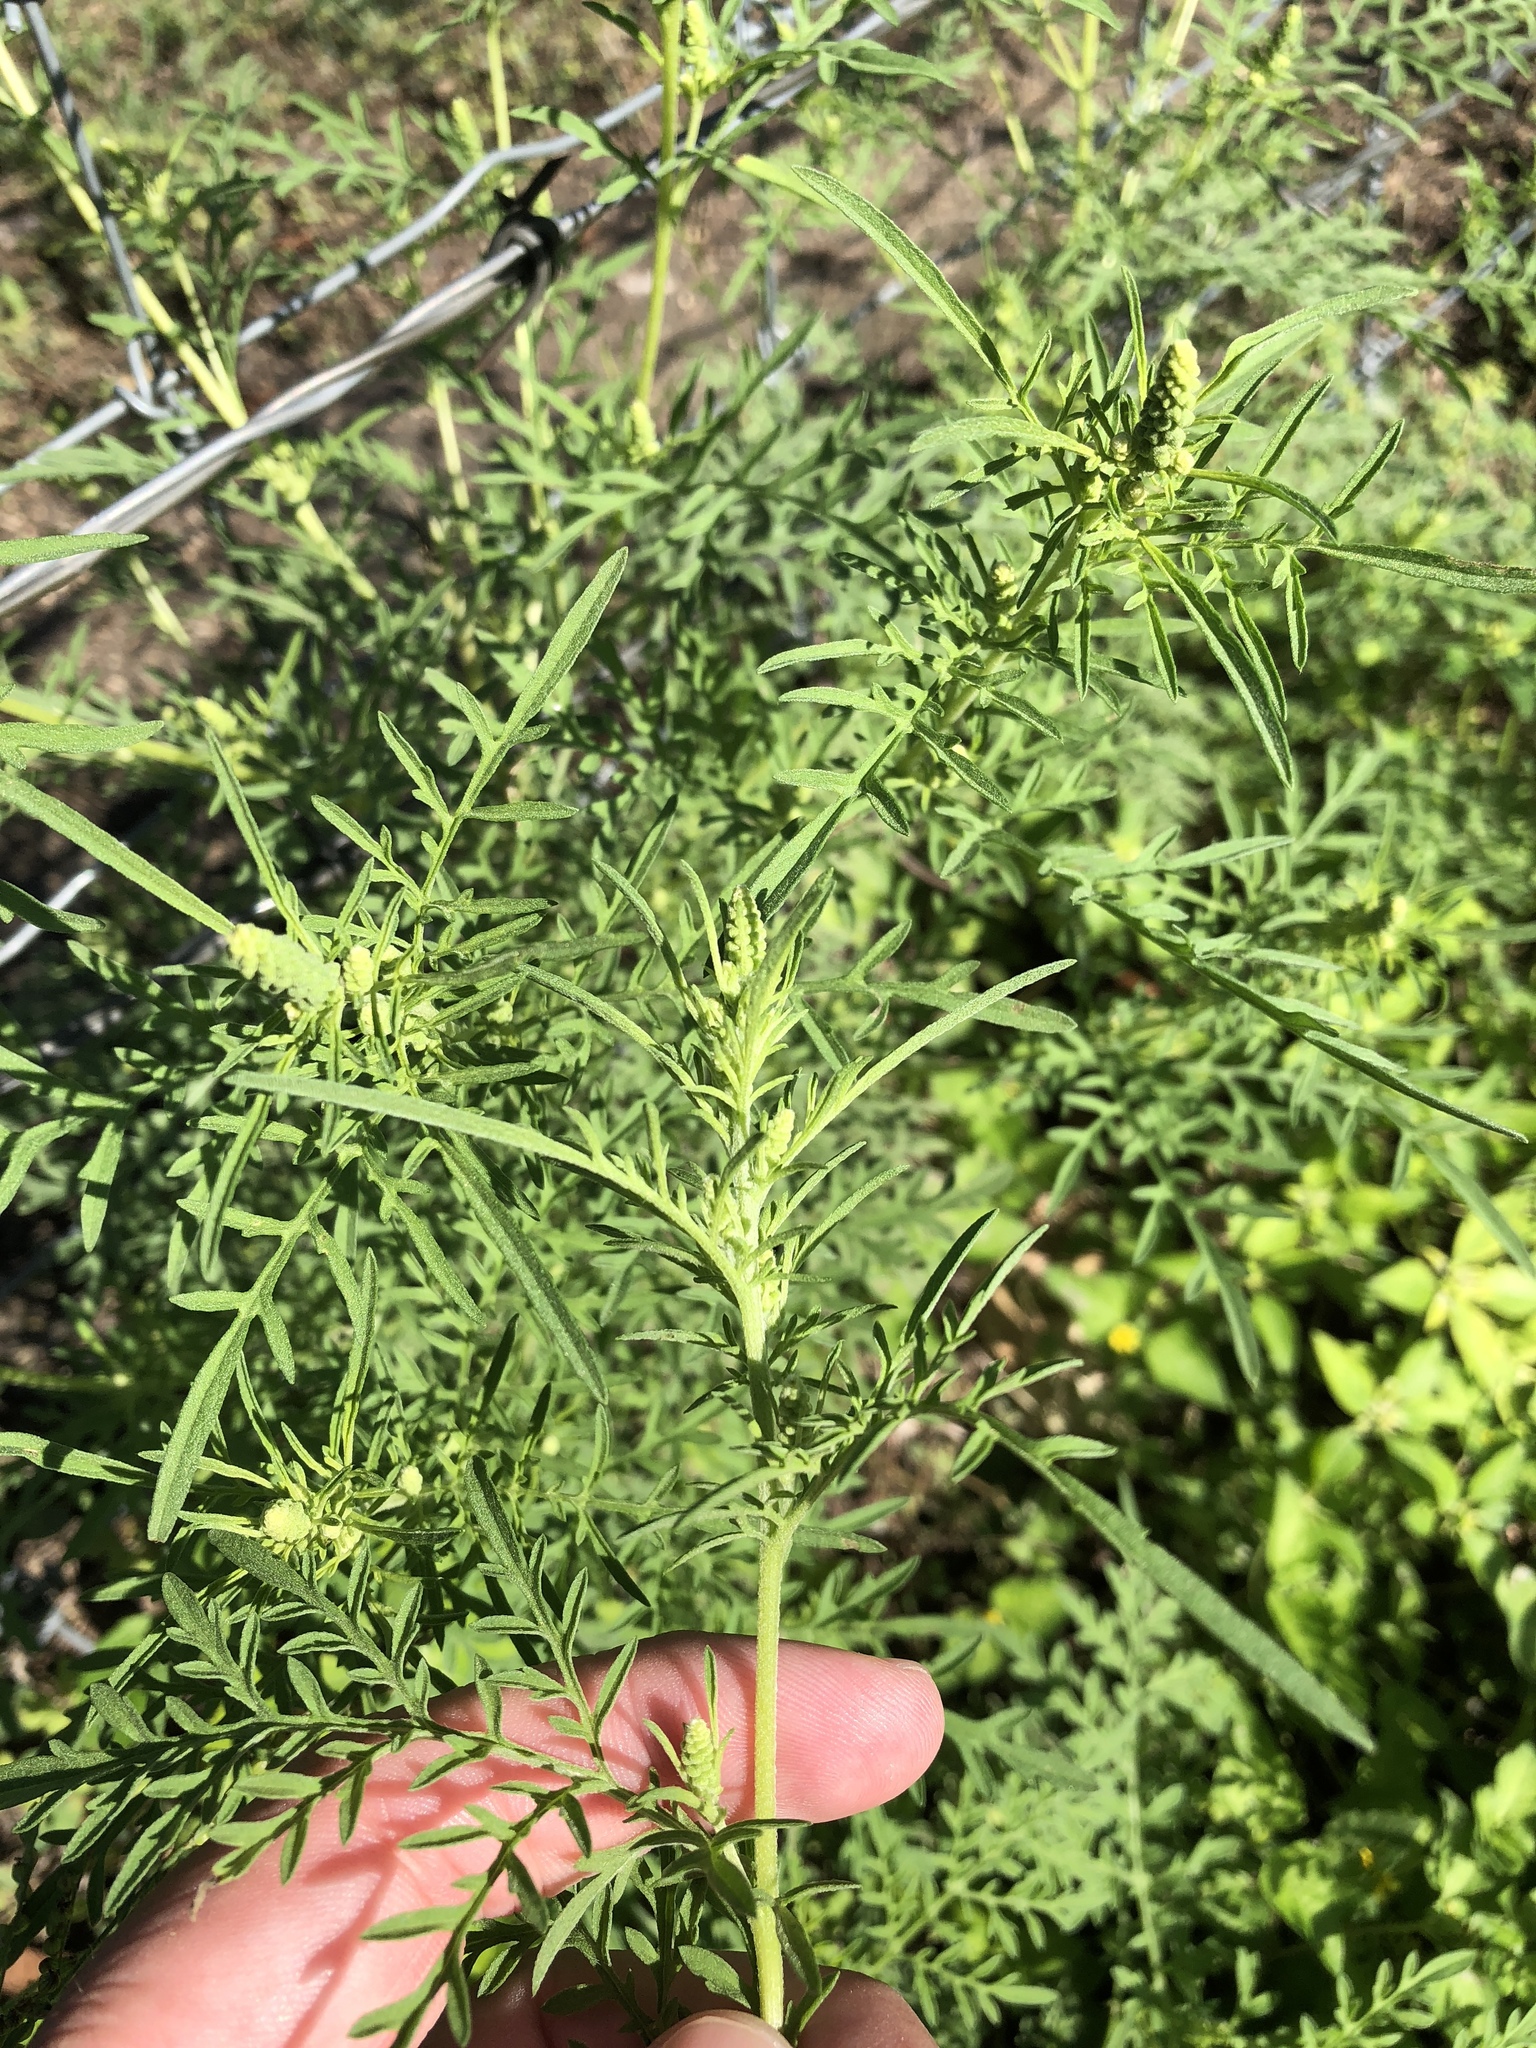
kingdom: Plantae
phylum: Tracheophyta
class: Magnoliopsida
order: Asterales
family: Asteraceae
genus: Ambrosia
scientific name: Ambrosia artemisiifolia
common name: Annual ragweed
